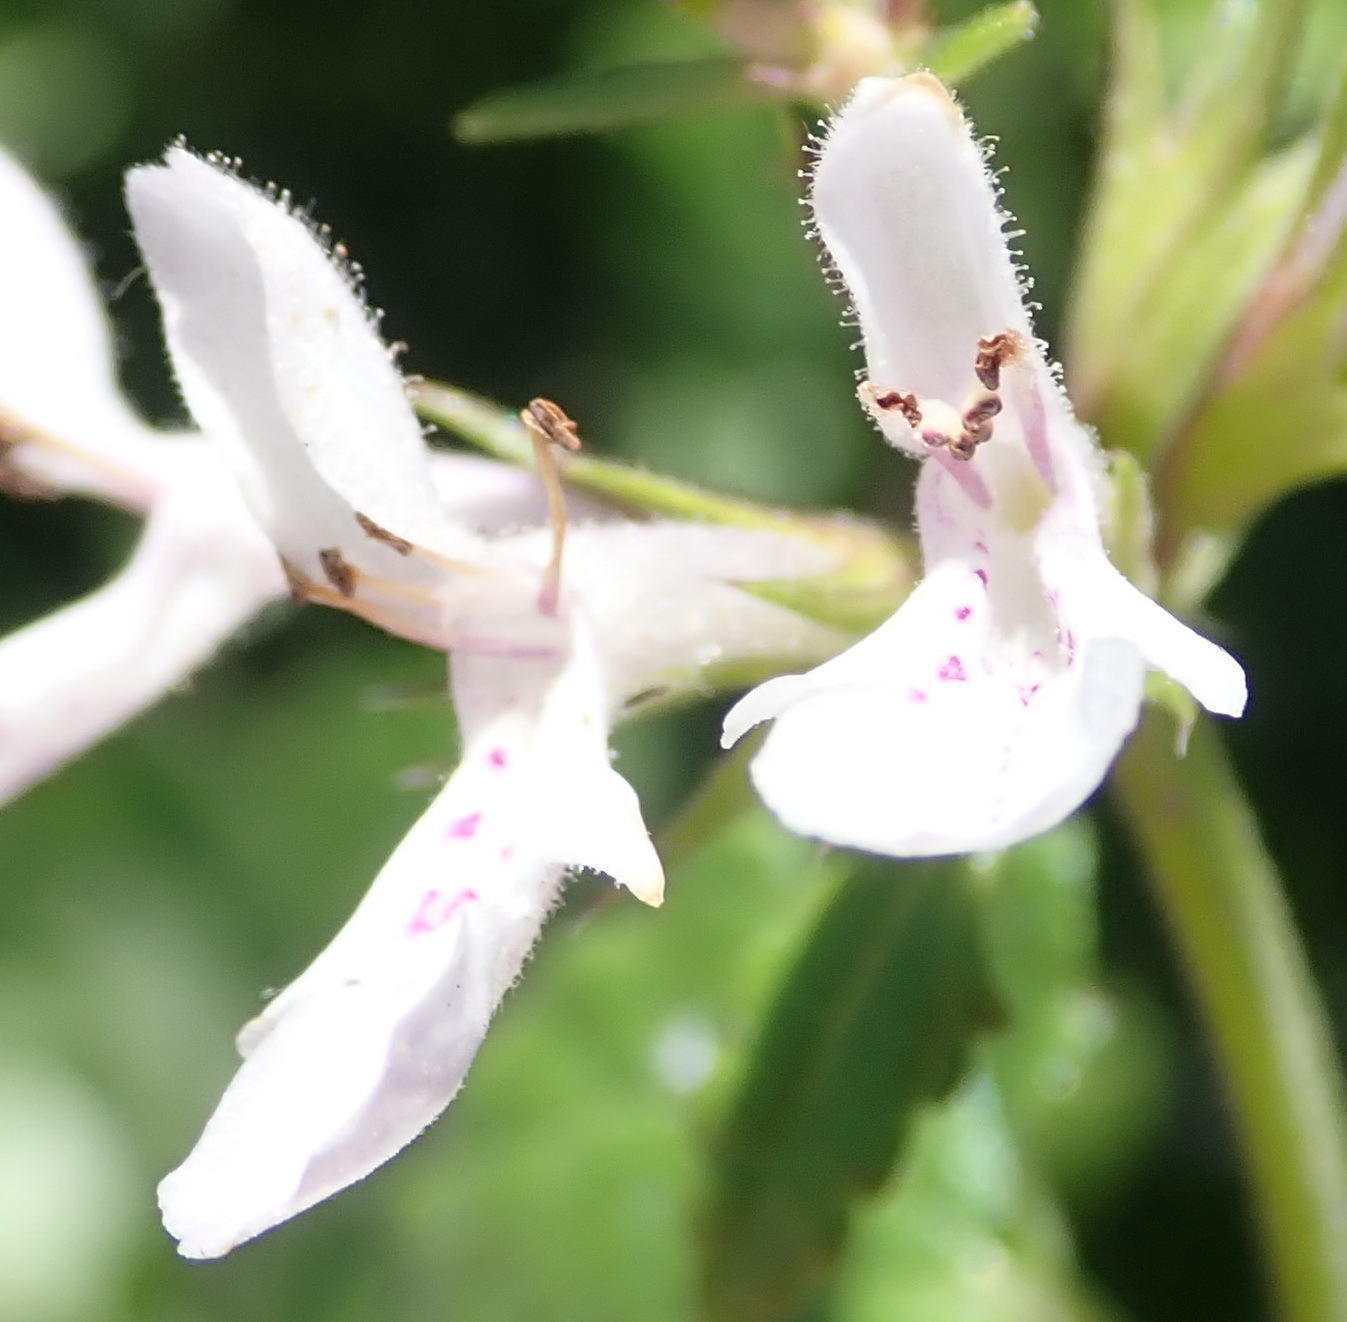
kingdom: Plantae
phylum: Tracheophyta
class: Magnoliopsida
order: Lamiales
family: Lamiaceae
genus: Stachys
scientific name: Stachys aethiopica
